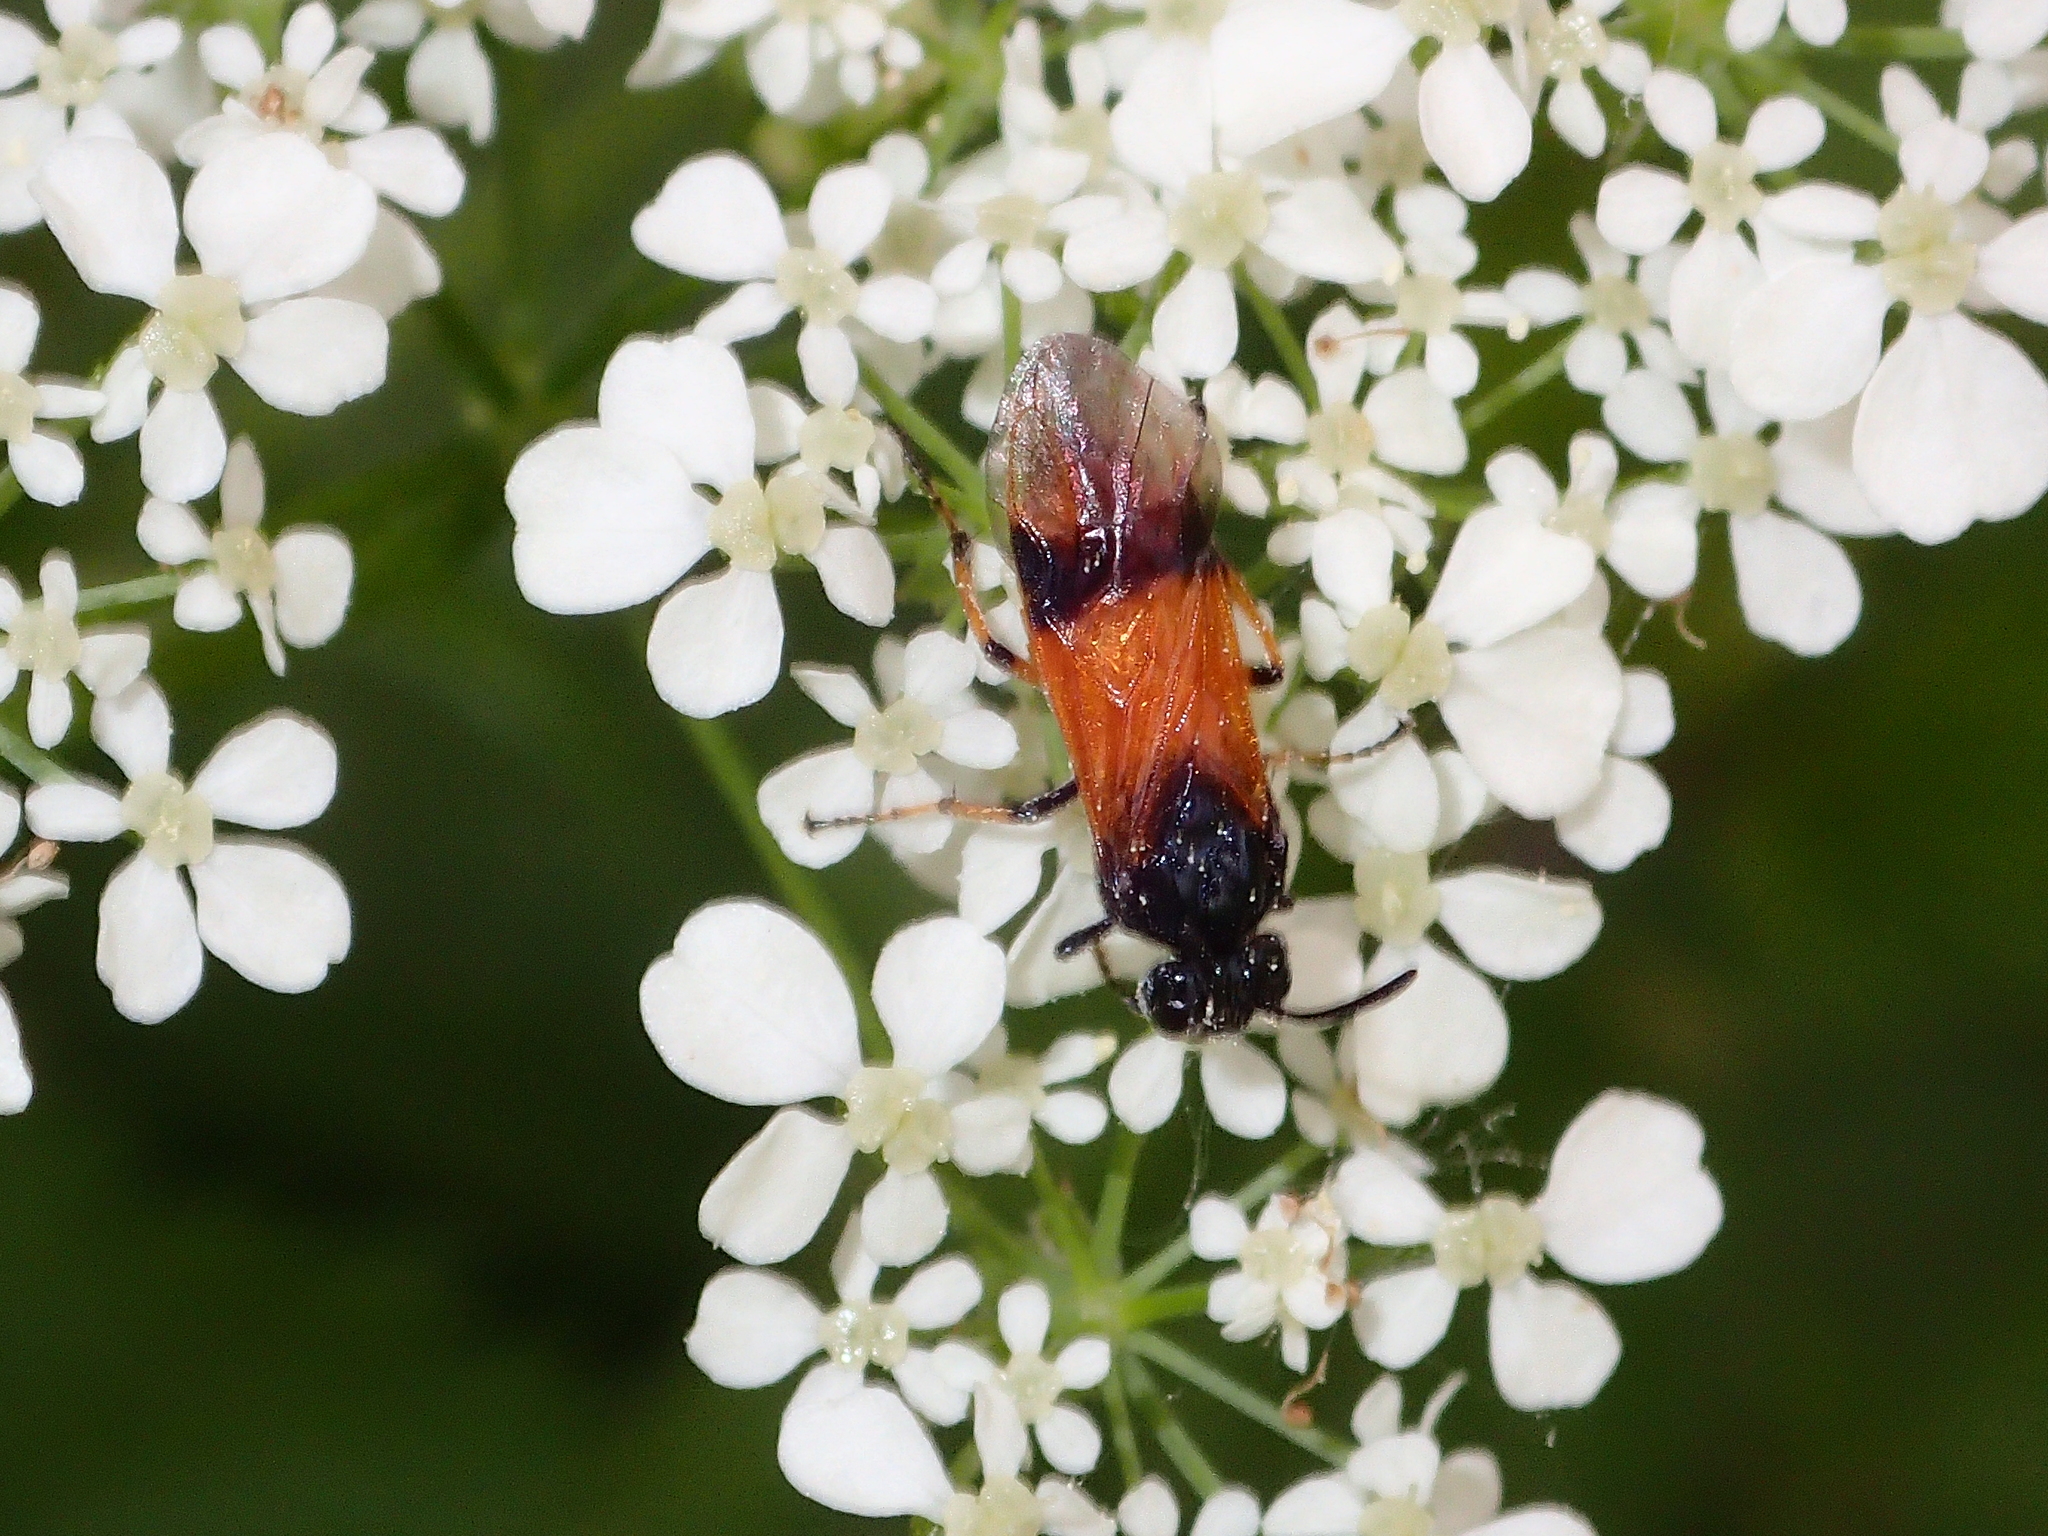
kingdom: Animalia
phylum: Arthropoda
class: Insecta
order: Hymenoptera
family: Argidae
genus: Arge
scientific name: Arge cyanocrocea
